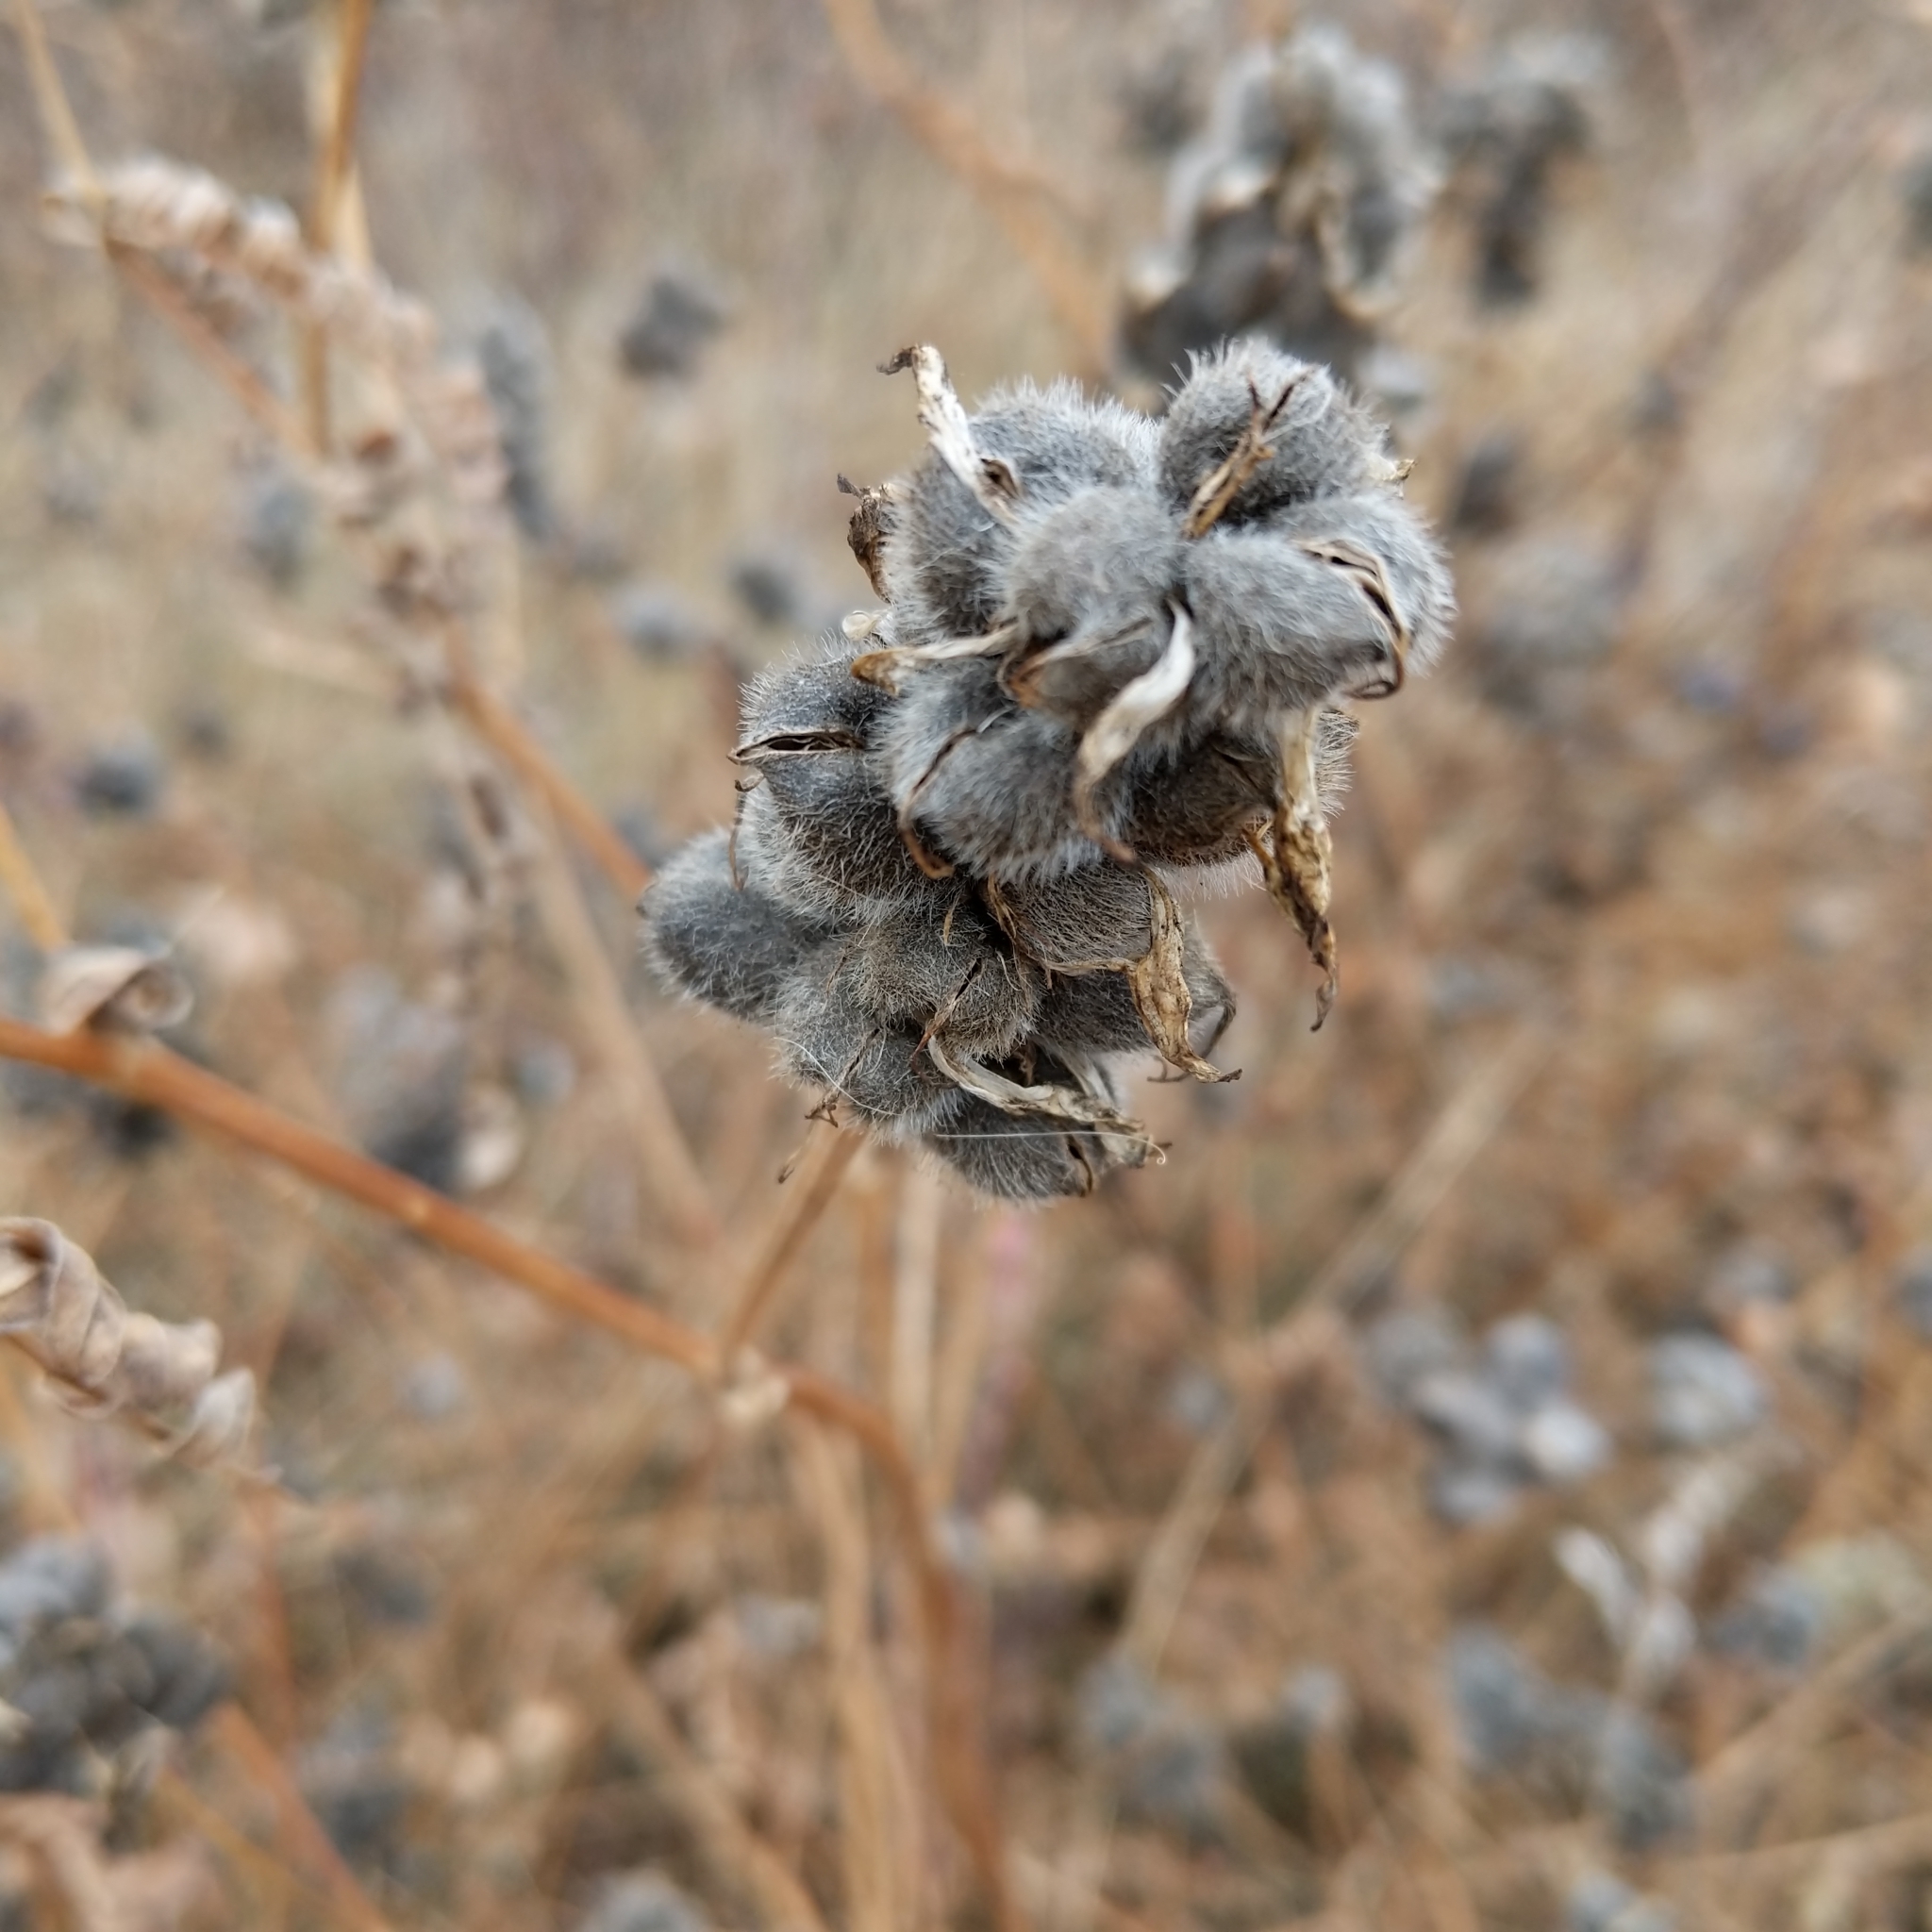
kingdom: Plantae
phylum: Tracheophyta
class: Magnoliopsida
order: Fabales
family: Fabaceae
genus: Astragalus
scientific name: Astragalus cicer
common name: Chick-pea milk-vetch
